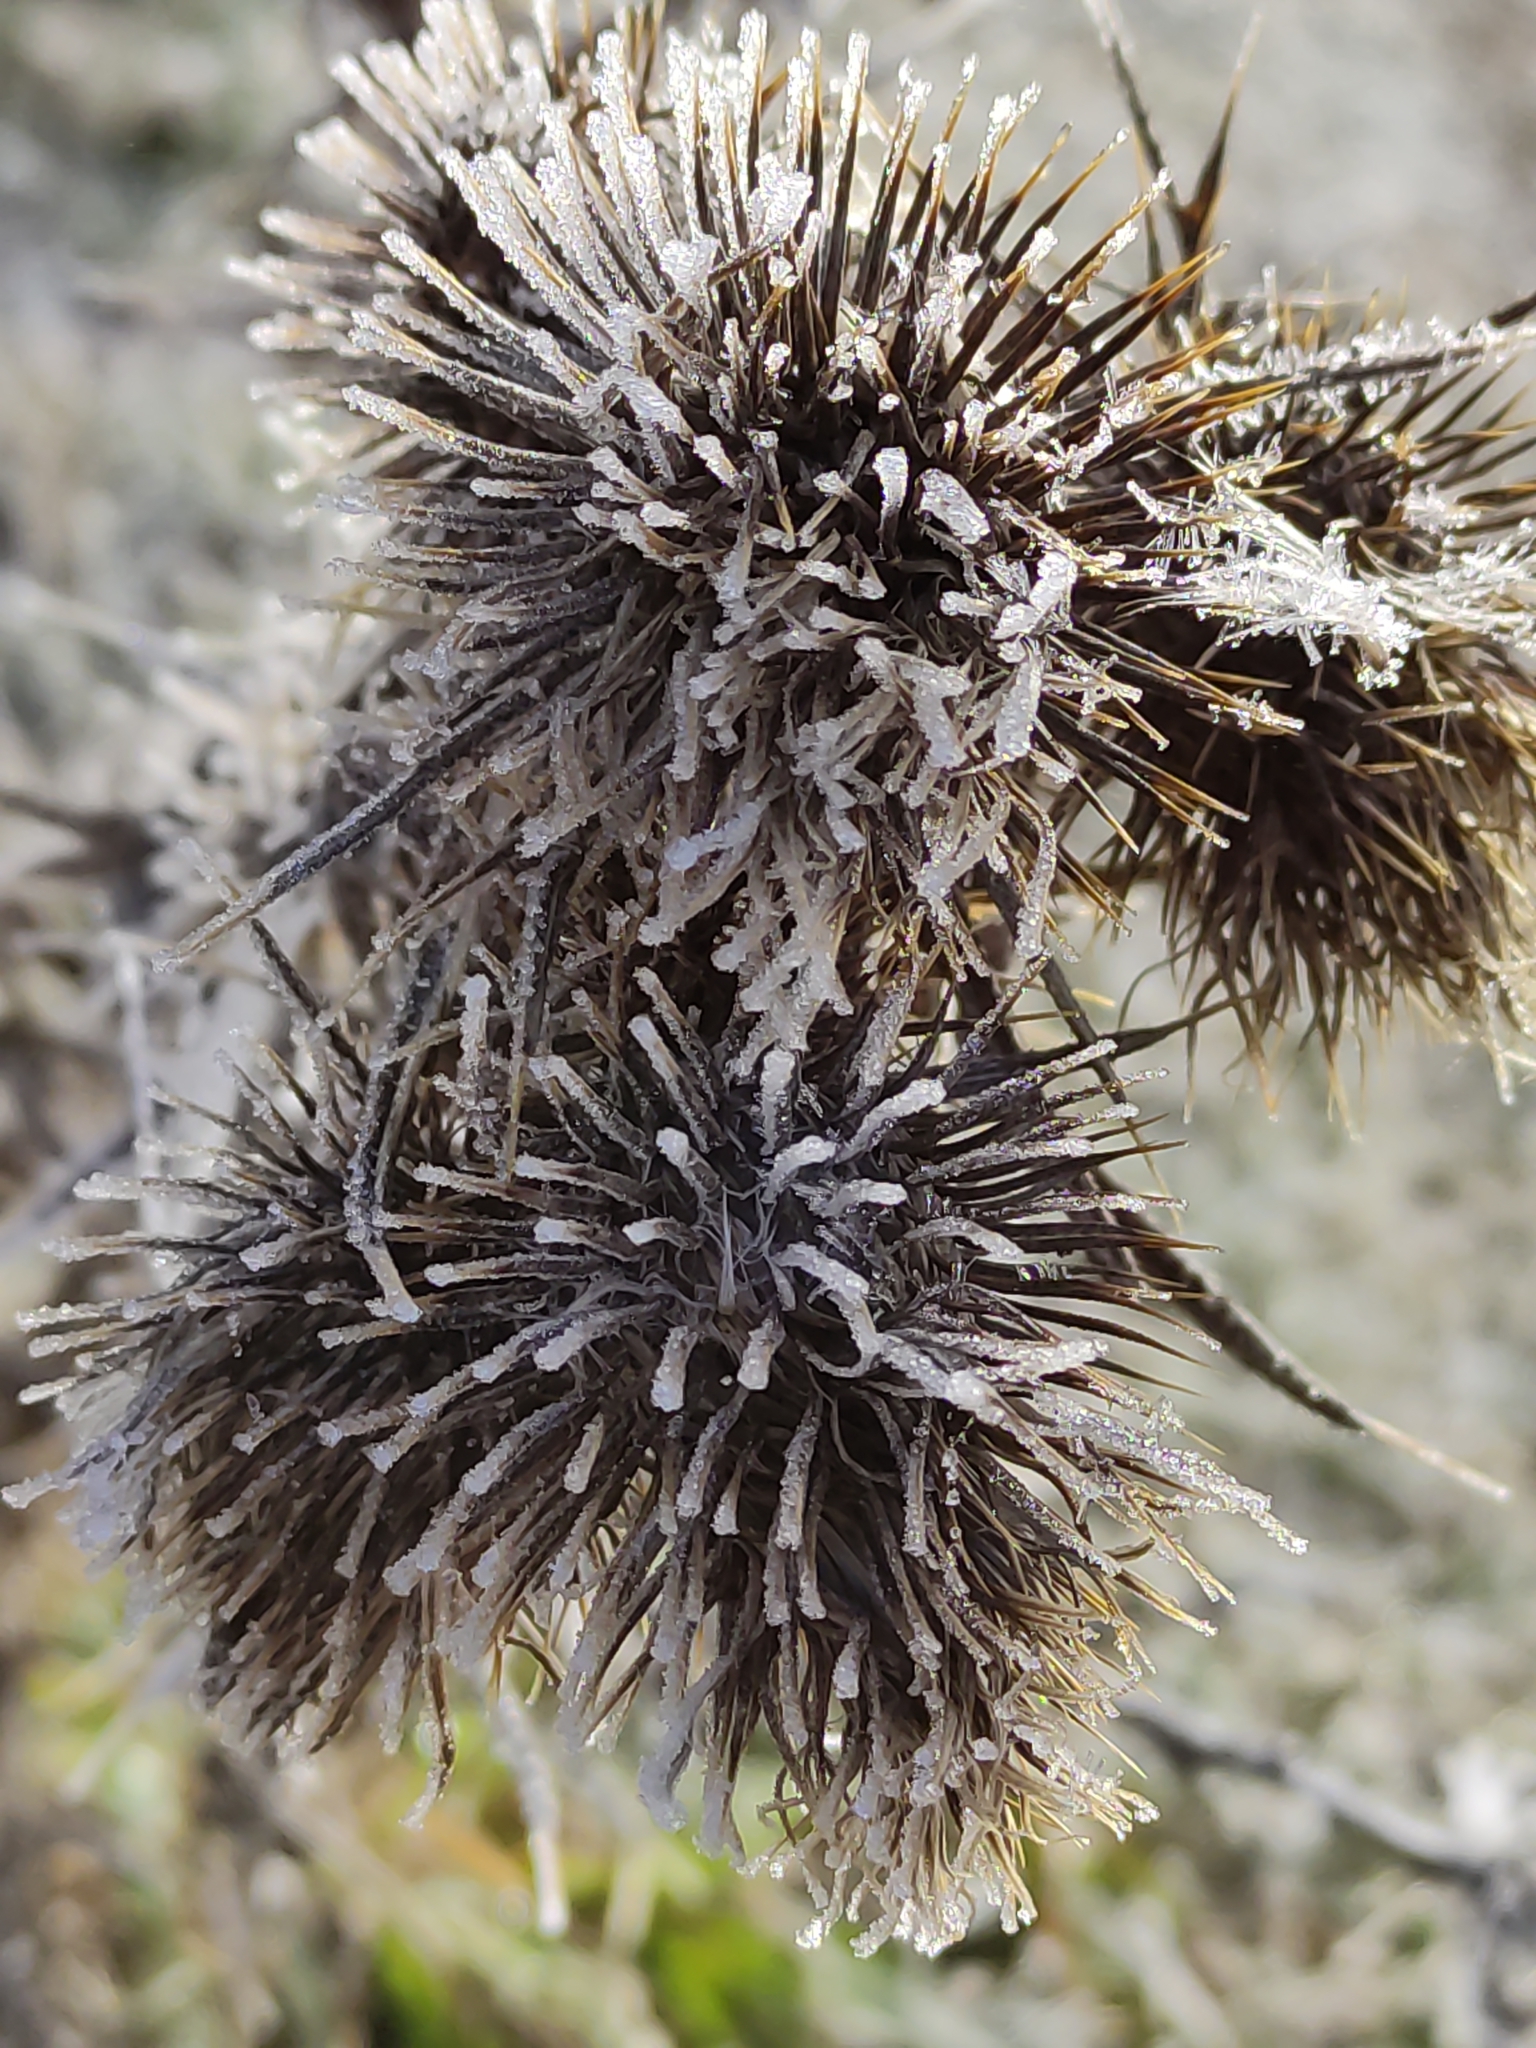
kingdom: Plantae
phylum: Tracheophyta
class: Magnoliopsida
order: Asterales
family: Asteraceae
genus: Carduus
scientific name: Carduus nutans
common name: Musk thistle
